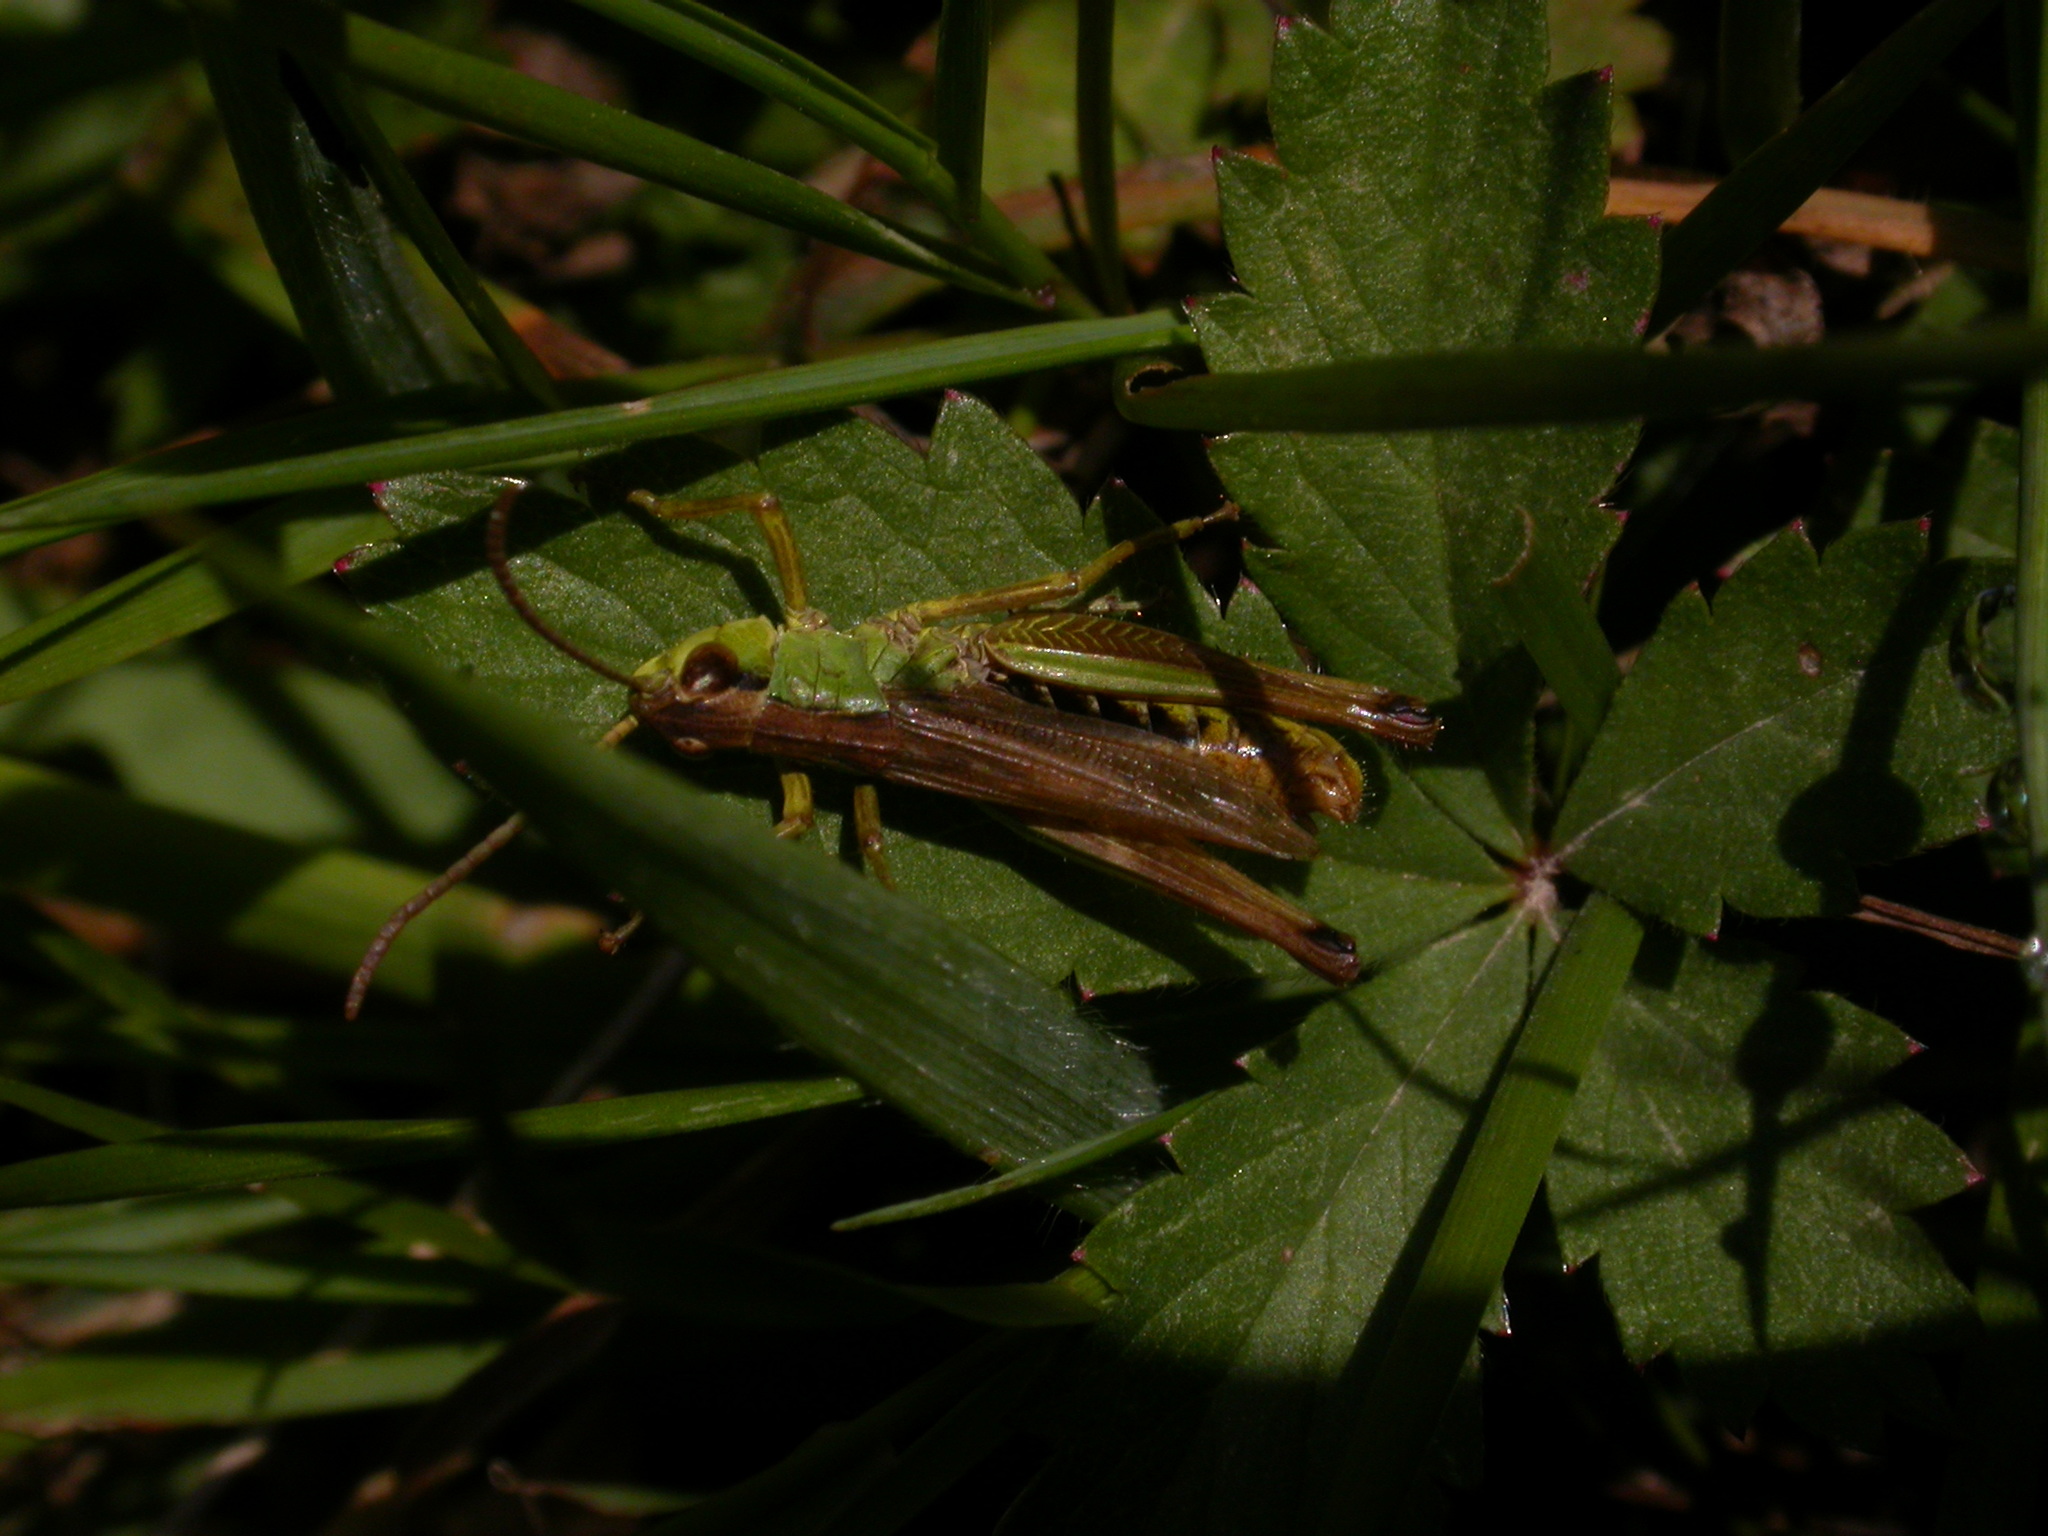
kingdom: Animalia
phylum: Arthropoda
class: Insecta
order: Orthoptera
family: Acrididae
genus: Pseudochorthippus
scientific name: Pseudochorthippus parallelus
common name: Meadow grasshopper
